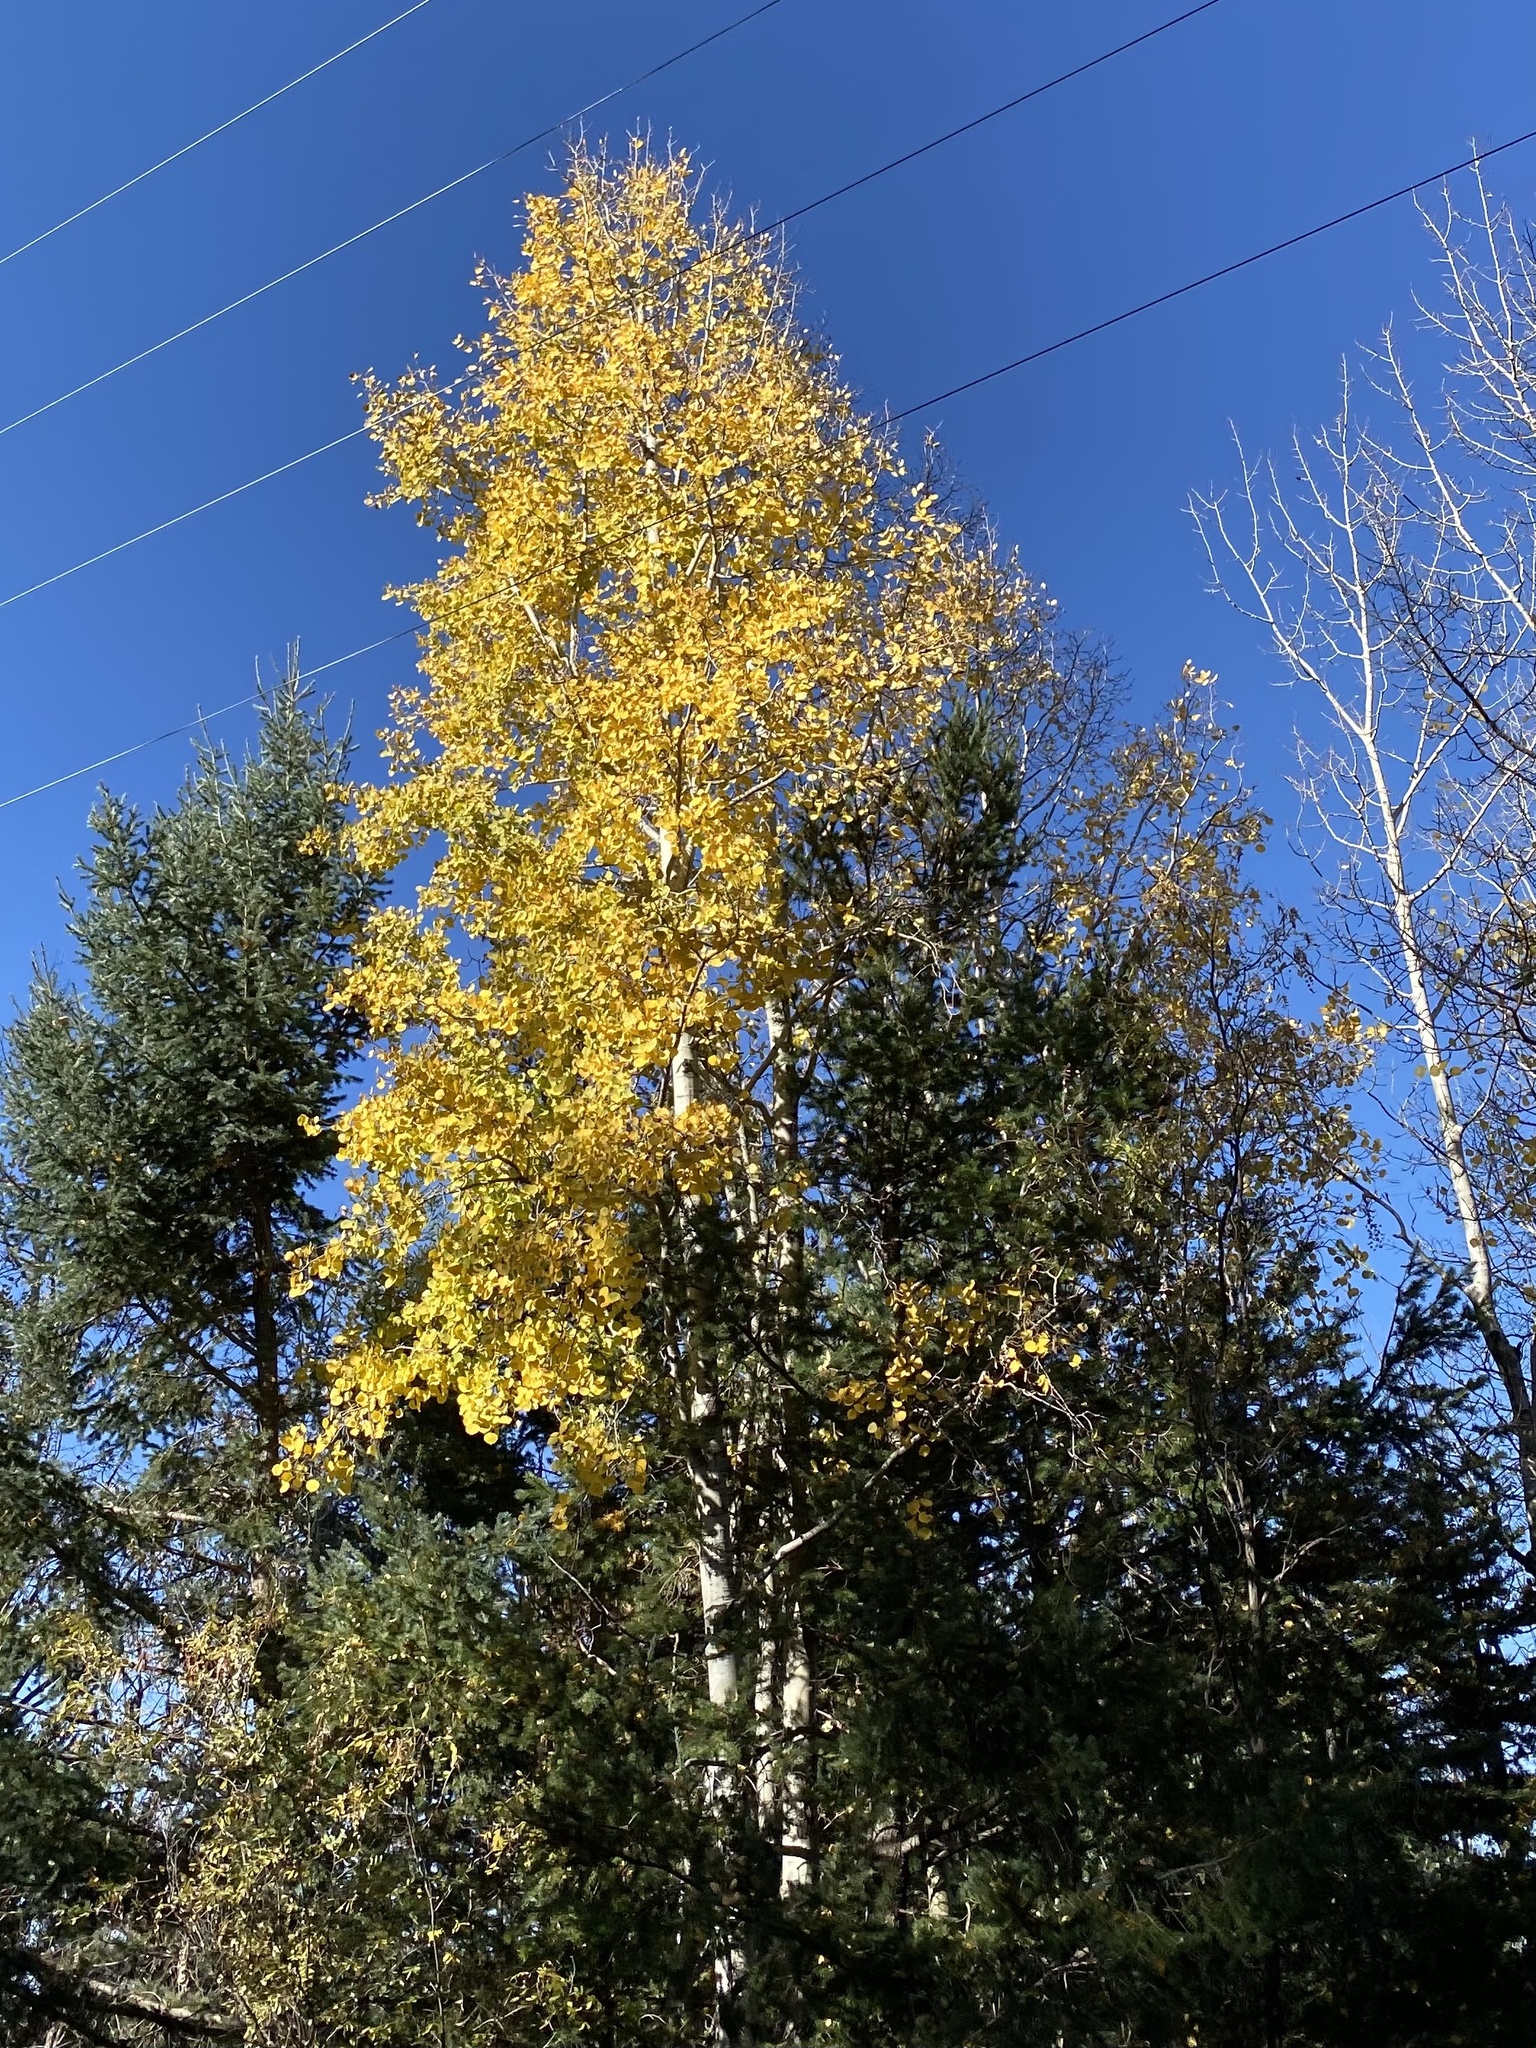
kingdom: Plantae
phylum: Tracheophyta
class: Magnoliopsida
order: Malpighiales
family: Salicaceae
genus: Populus
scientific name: Populus tremuloides
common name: Quaking aspen
